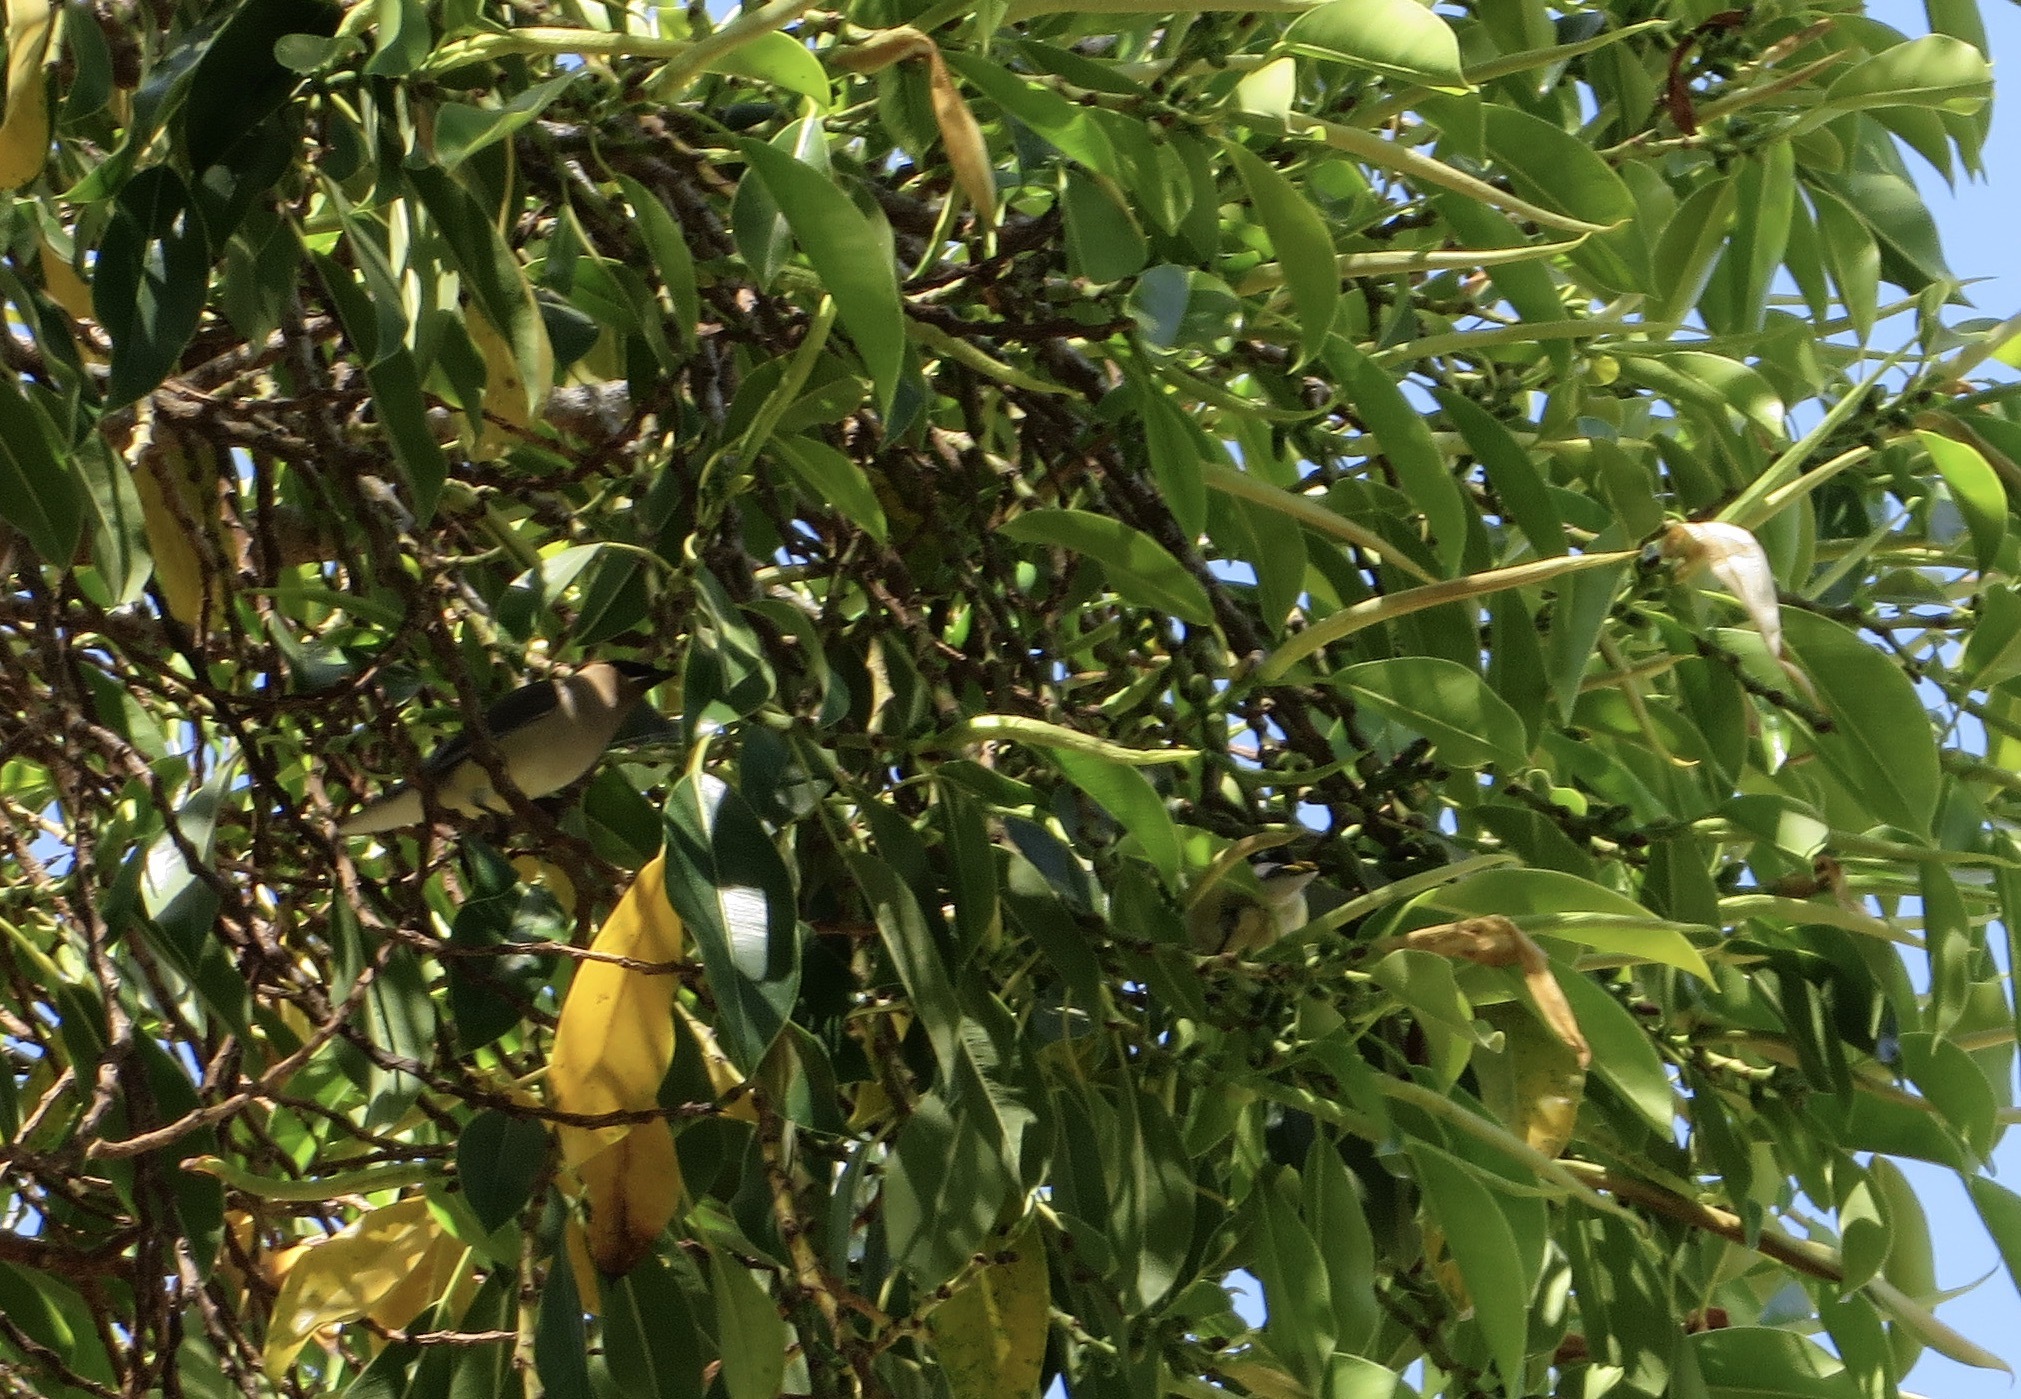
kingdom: Animalia
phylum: Chordata
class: Aves
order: Passeriformes
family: Bombycillidae
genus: Bombycilla
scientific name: Bombycilla cedrorum
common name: Cedar waxwing
